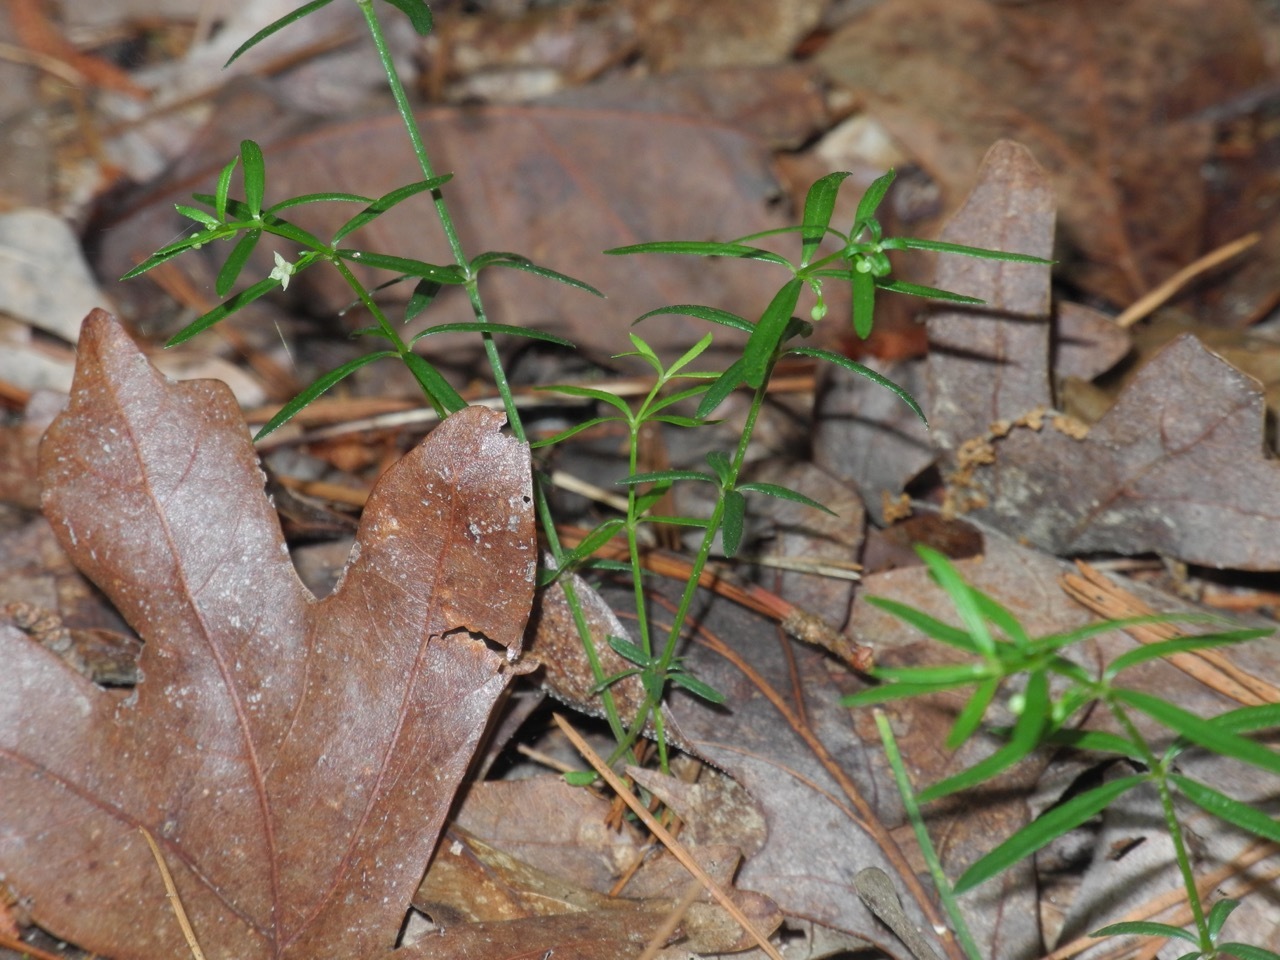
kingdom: Plantae
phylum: Tracheophyta
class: Magnoliopsida
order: Gentianales
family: Rubiaceae
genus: Galium
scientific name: Galium uniflorum
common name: One-flower bedstraw
